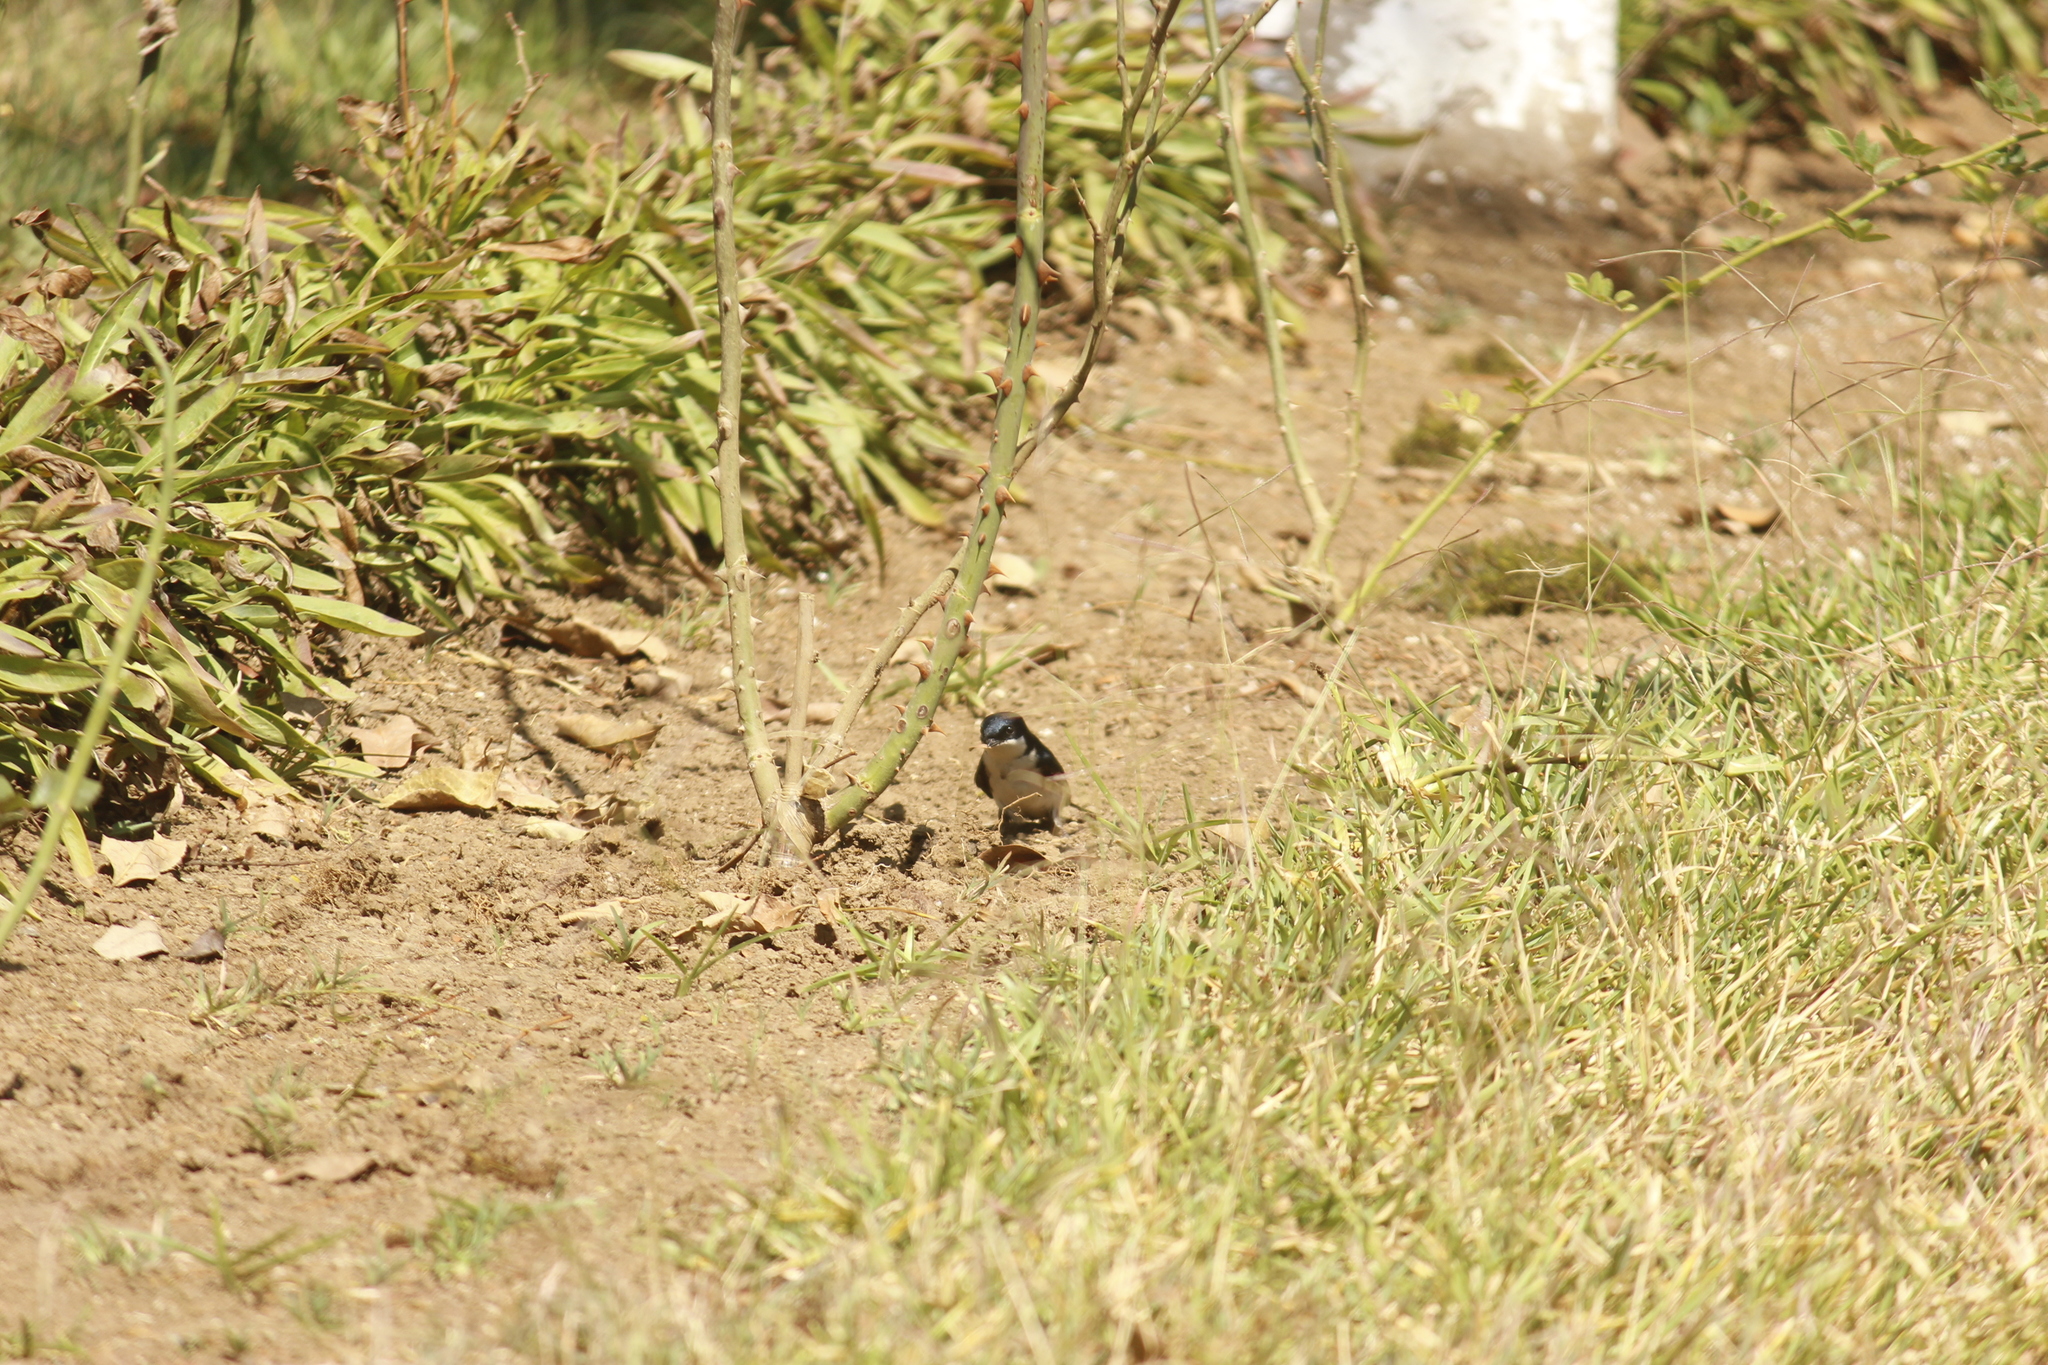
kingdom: Animalia
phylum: Chordata
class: Aves
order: Passeriformes
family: Hirundinidae
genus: Notiochelidon
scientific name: Notiochelidon cyanoleuca
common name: Blue-and-white swallow
